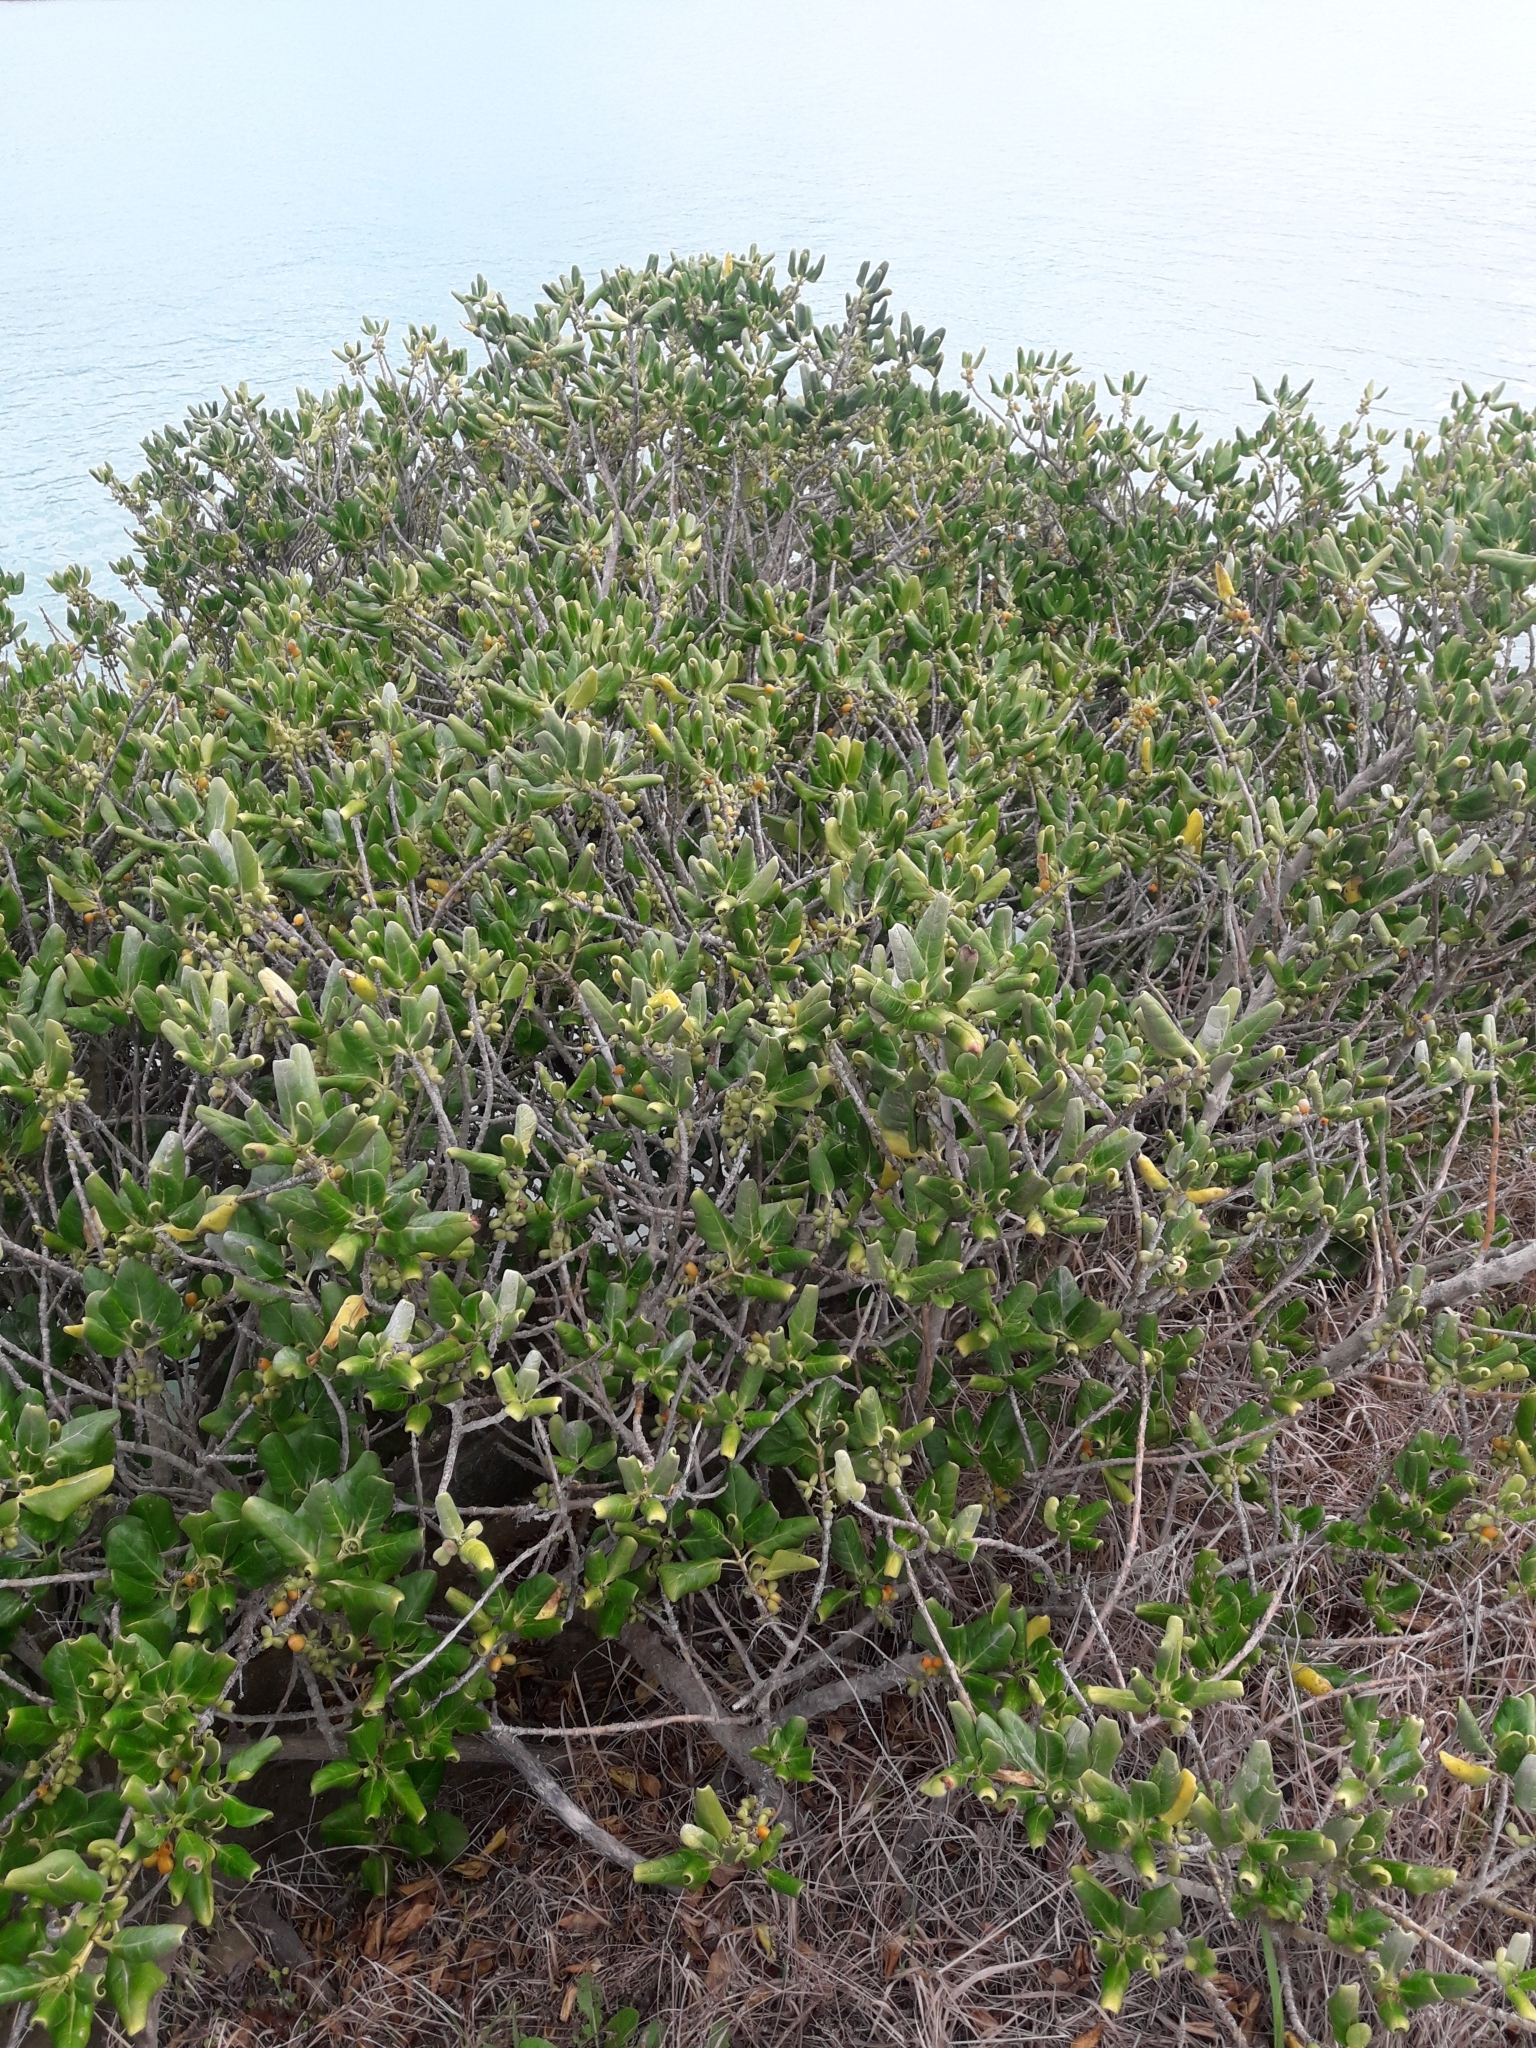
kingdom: Plantae
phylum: Tracheophyta
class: Magnoliopsida
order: Gentianales
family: Rubiaceae
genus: Coprosma
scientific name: Coprosma repens
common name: Tree bedstraw
